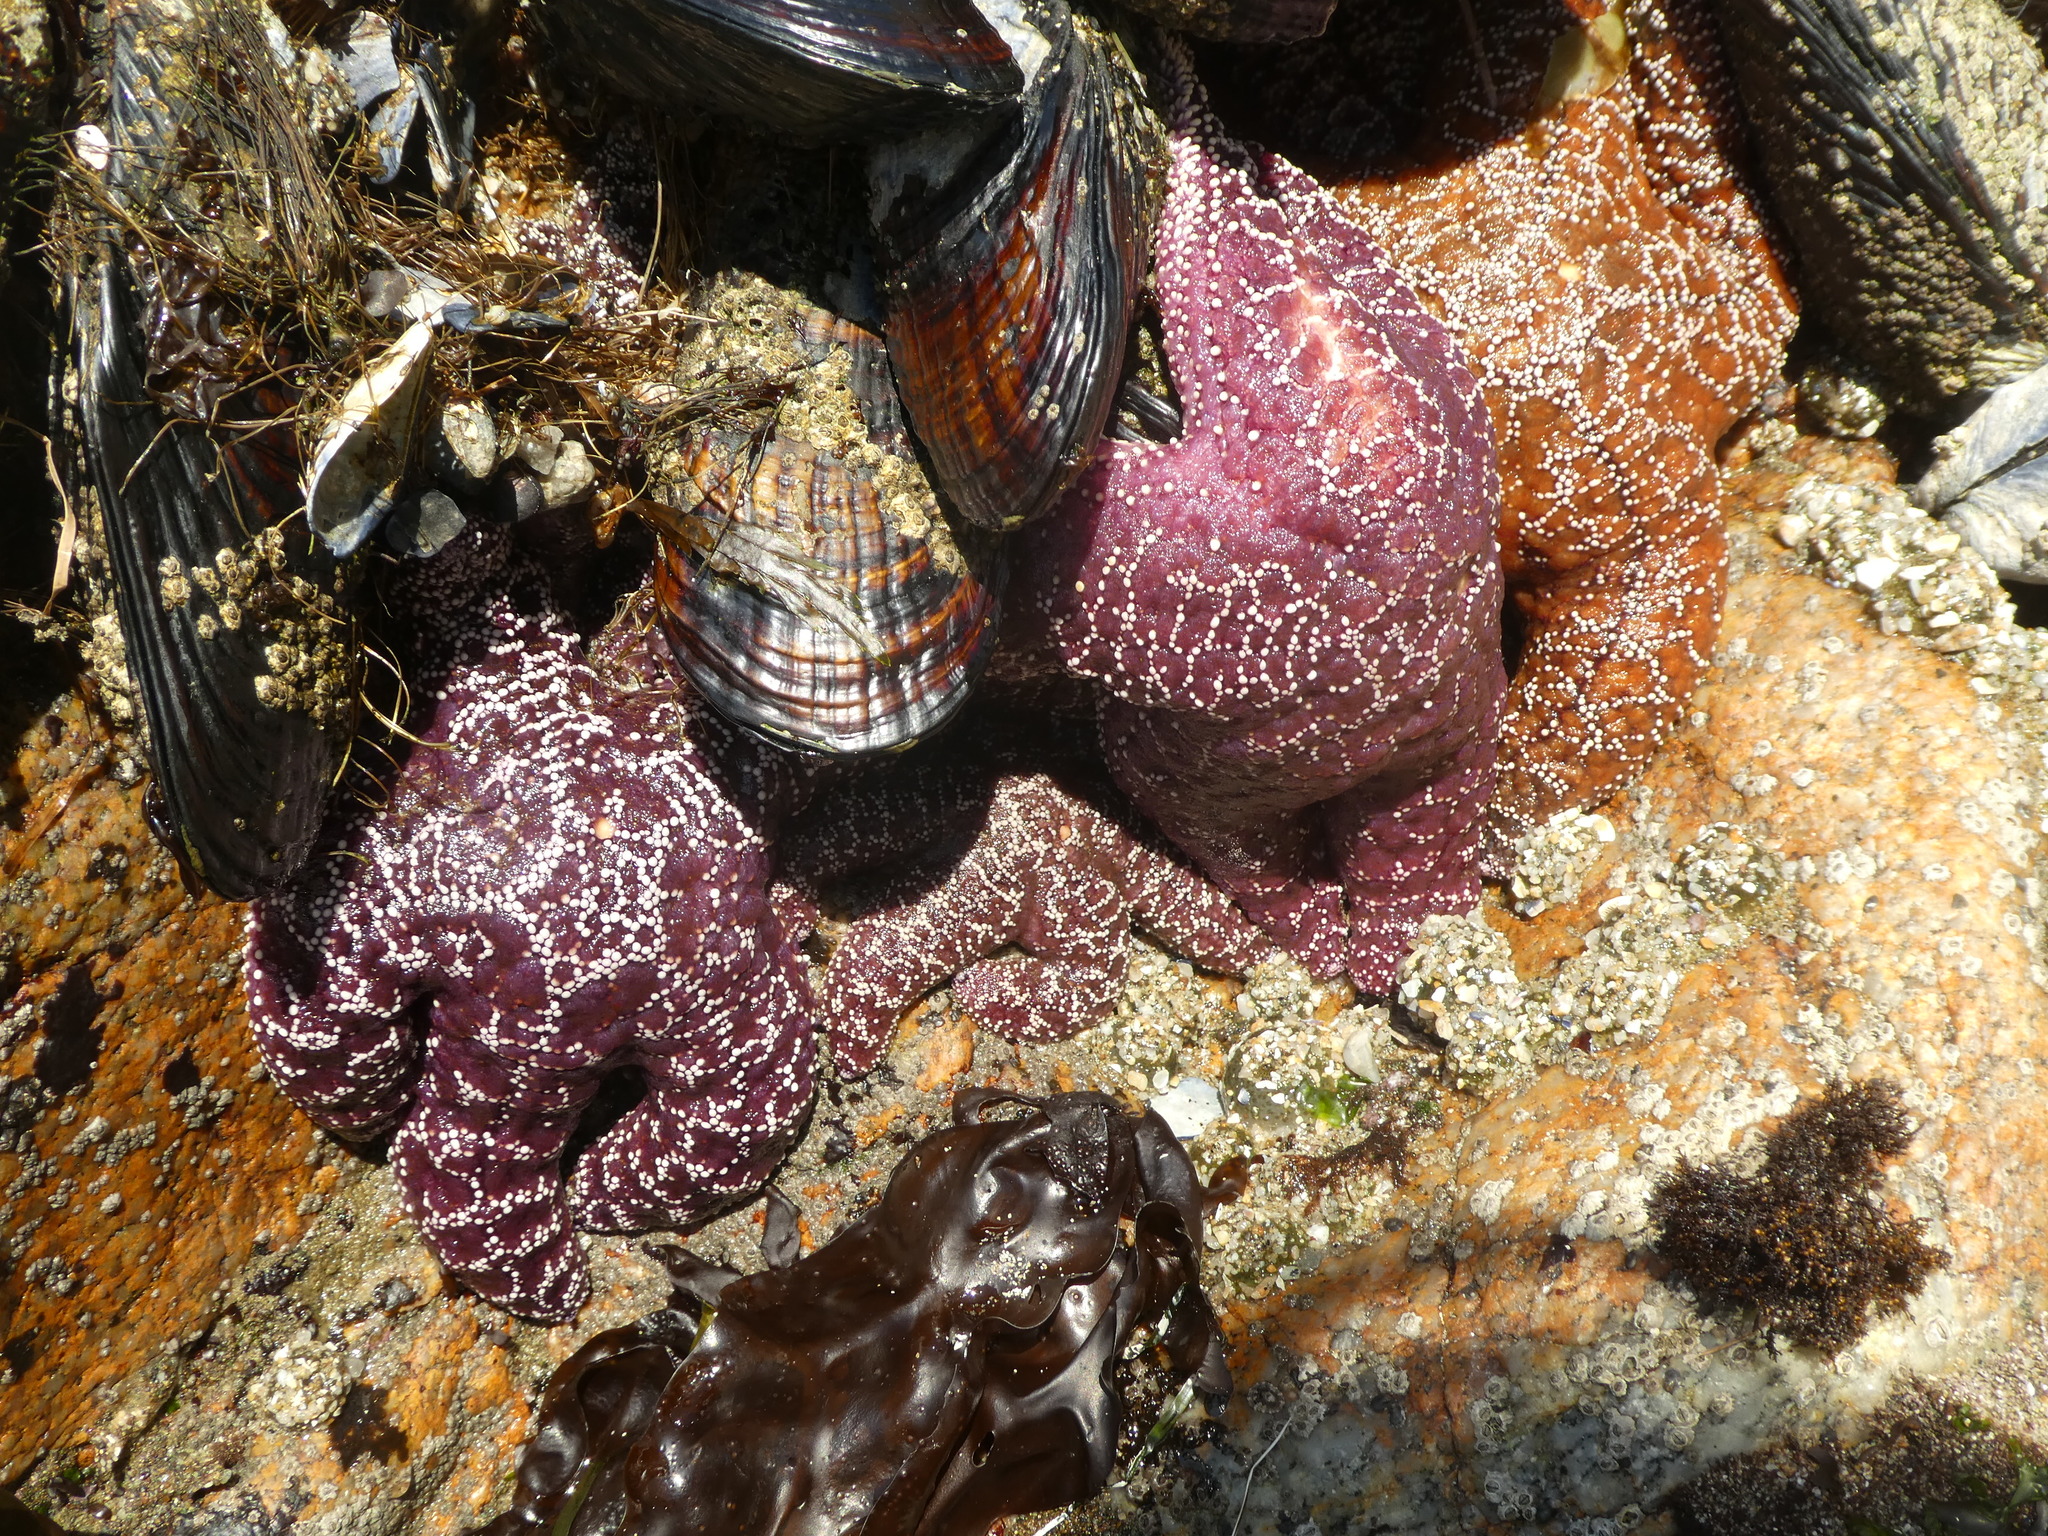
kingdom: Animalia
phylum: Echinodermata
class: Asteroidea
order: Forcipulatida
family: Asteriidae
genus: Pisaster
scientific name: Pisaster ochraceus
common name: Ochre stars
